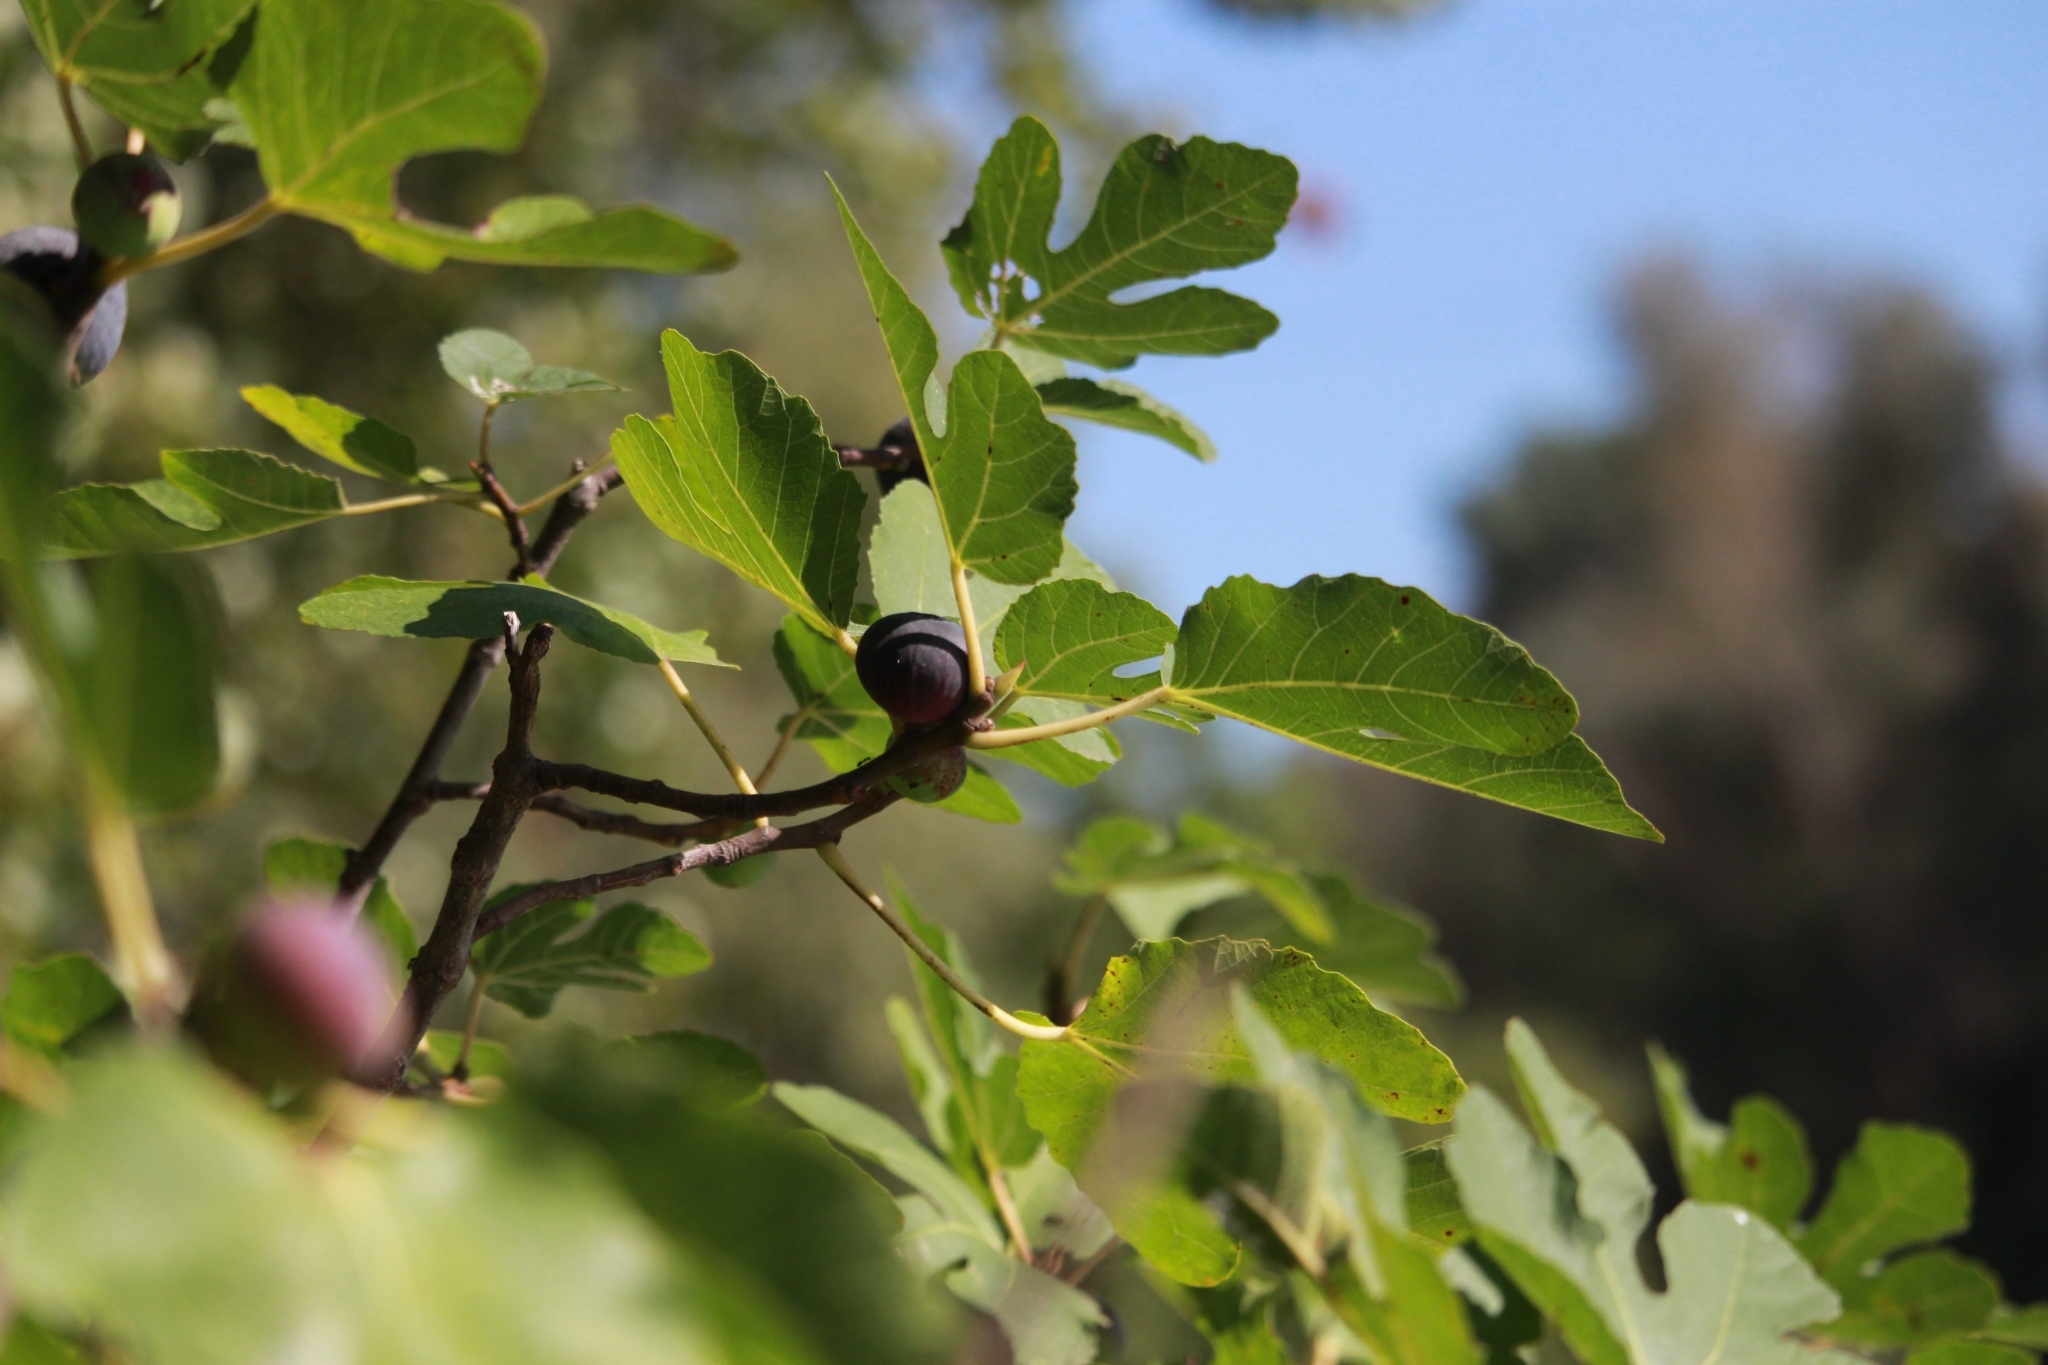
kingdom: Plantae
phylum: Tracheophyta
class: Magnoliopsida
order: Rosales
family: Moraceae
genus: Ficus
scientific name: Ficus carica
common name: Fig
